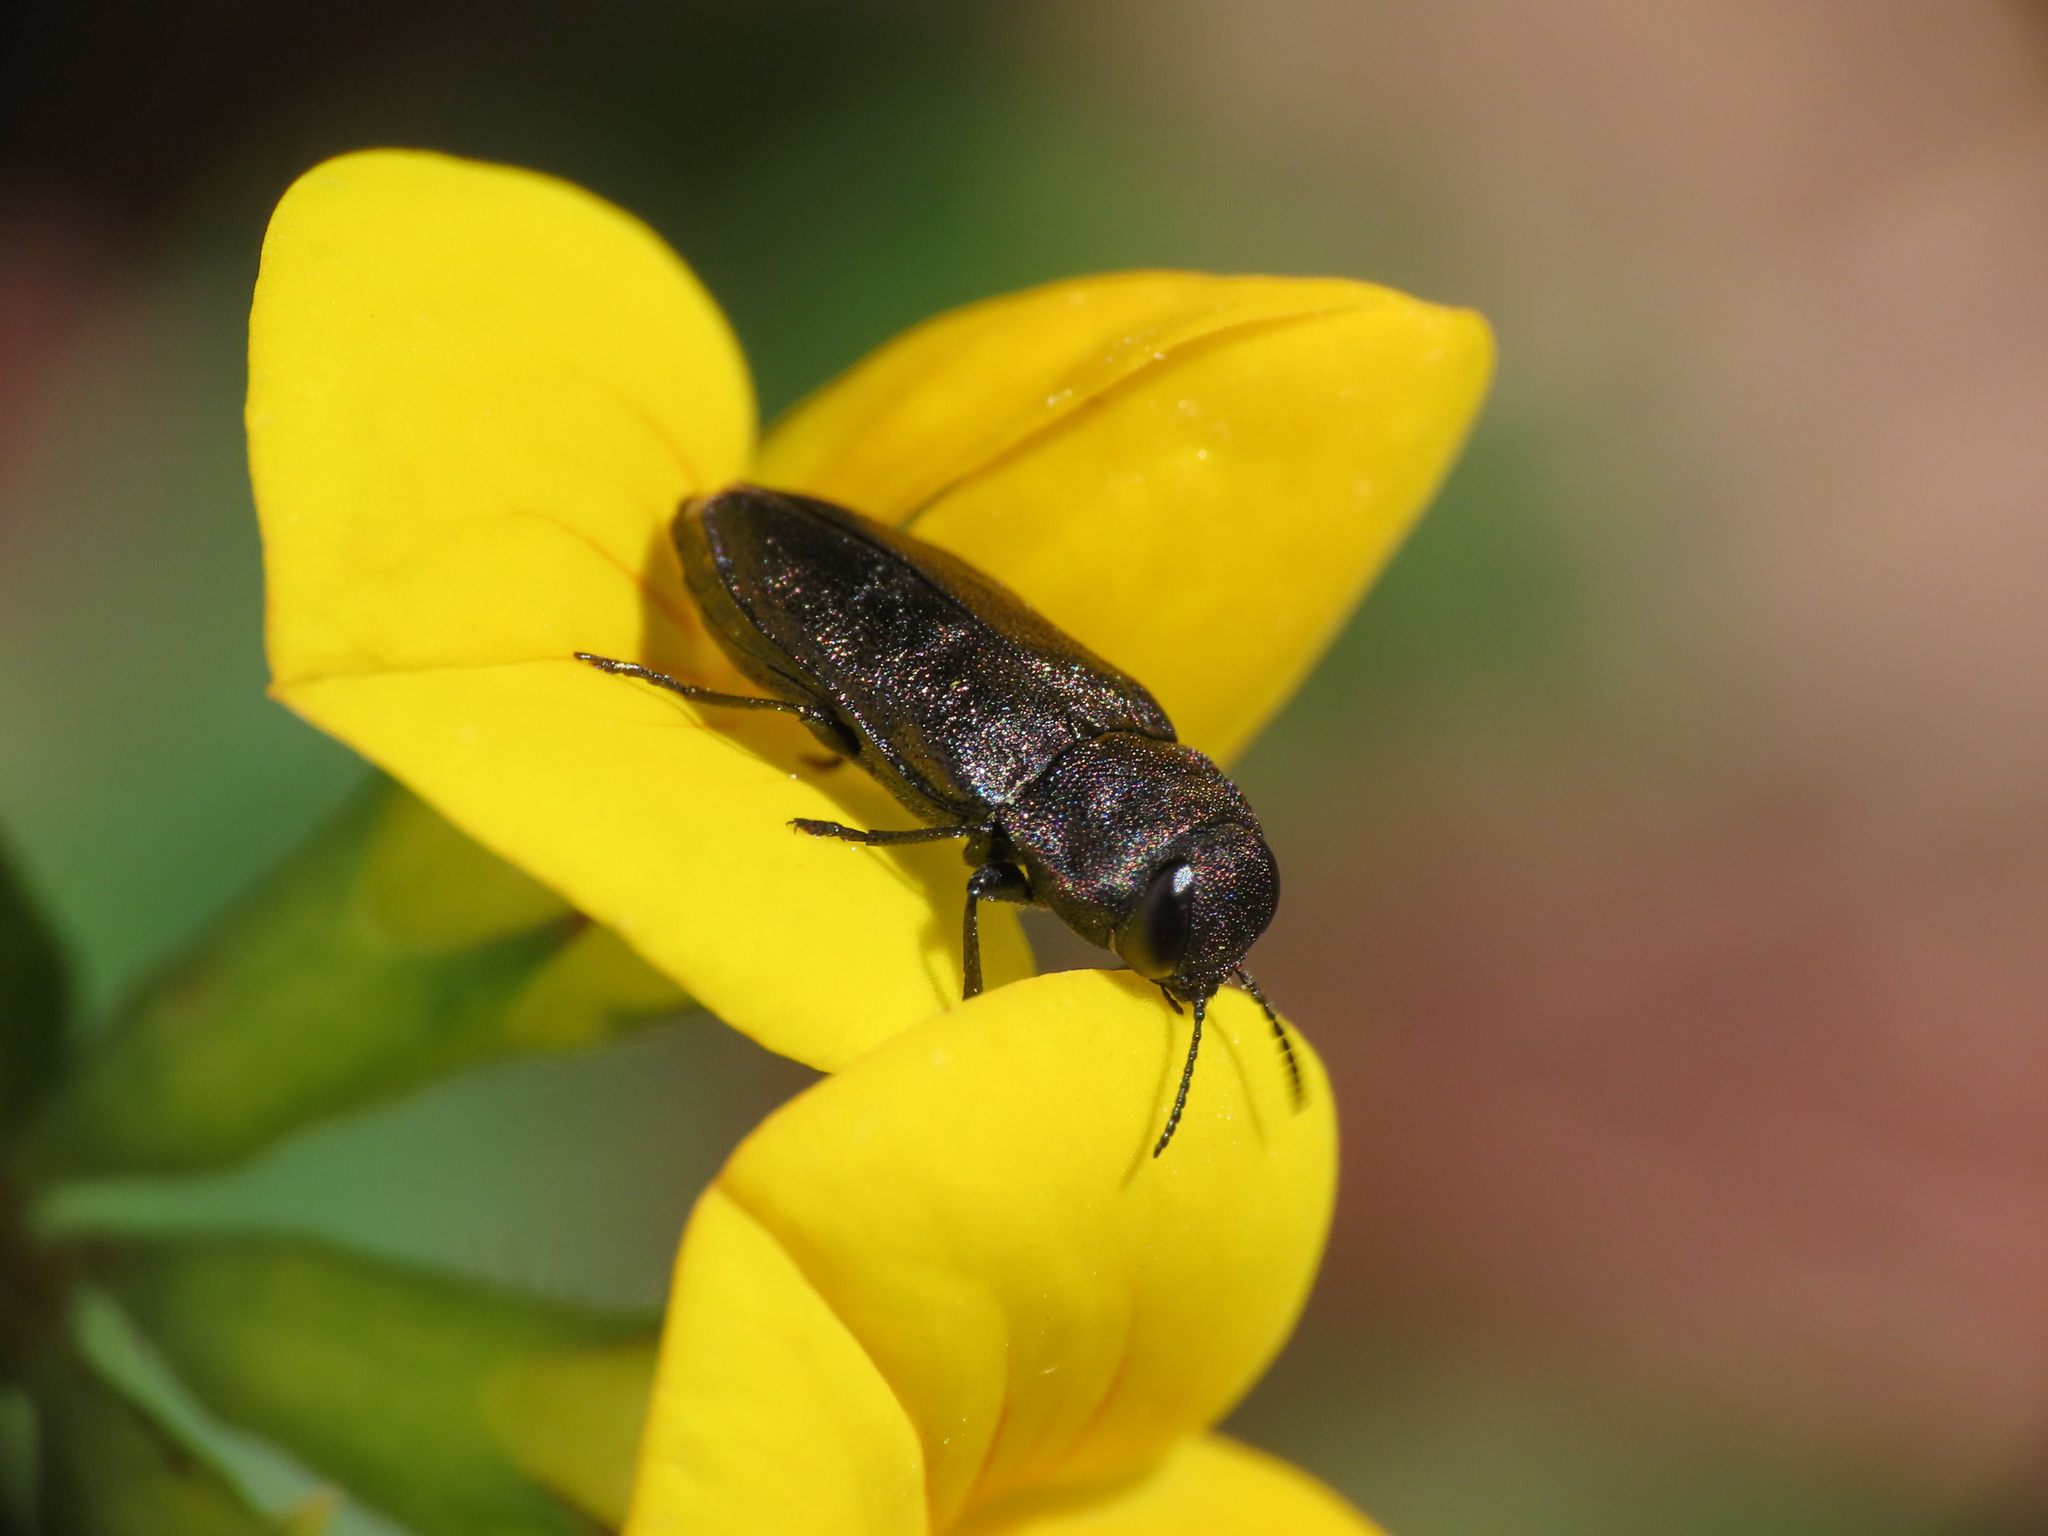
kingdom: Animalia
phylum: Arthropoda
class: Insecta
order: Coleoptera
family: Buprestidae
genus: Anthaxia
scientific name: Anthaxia quadripunctata
